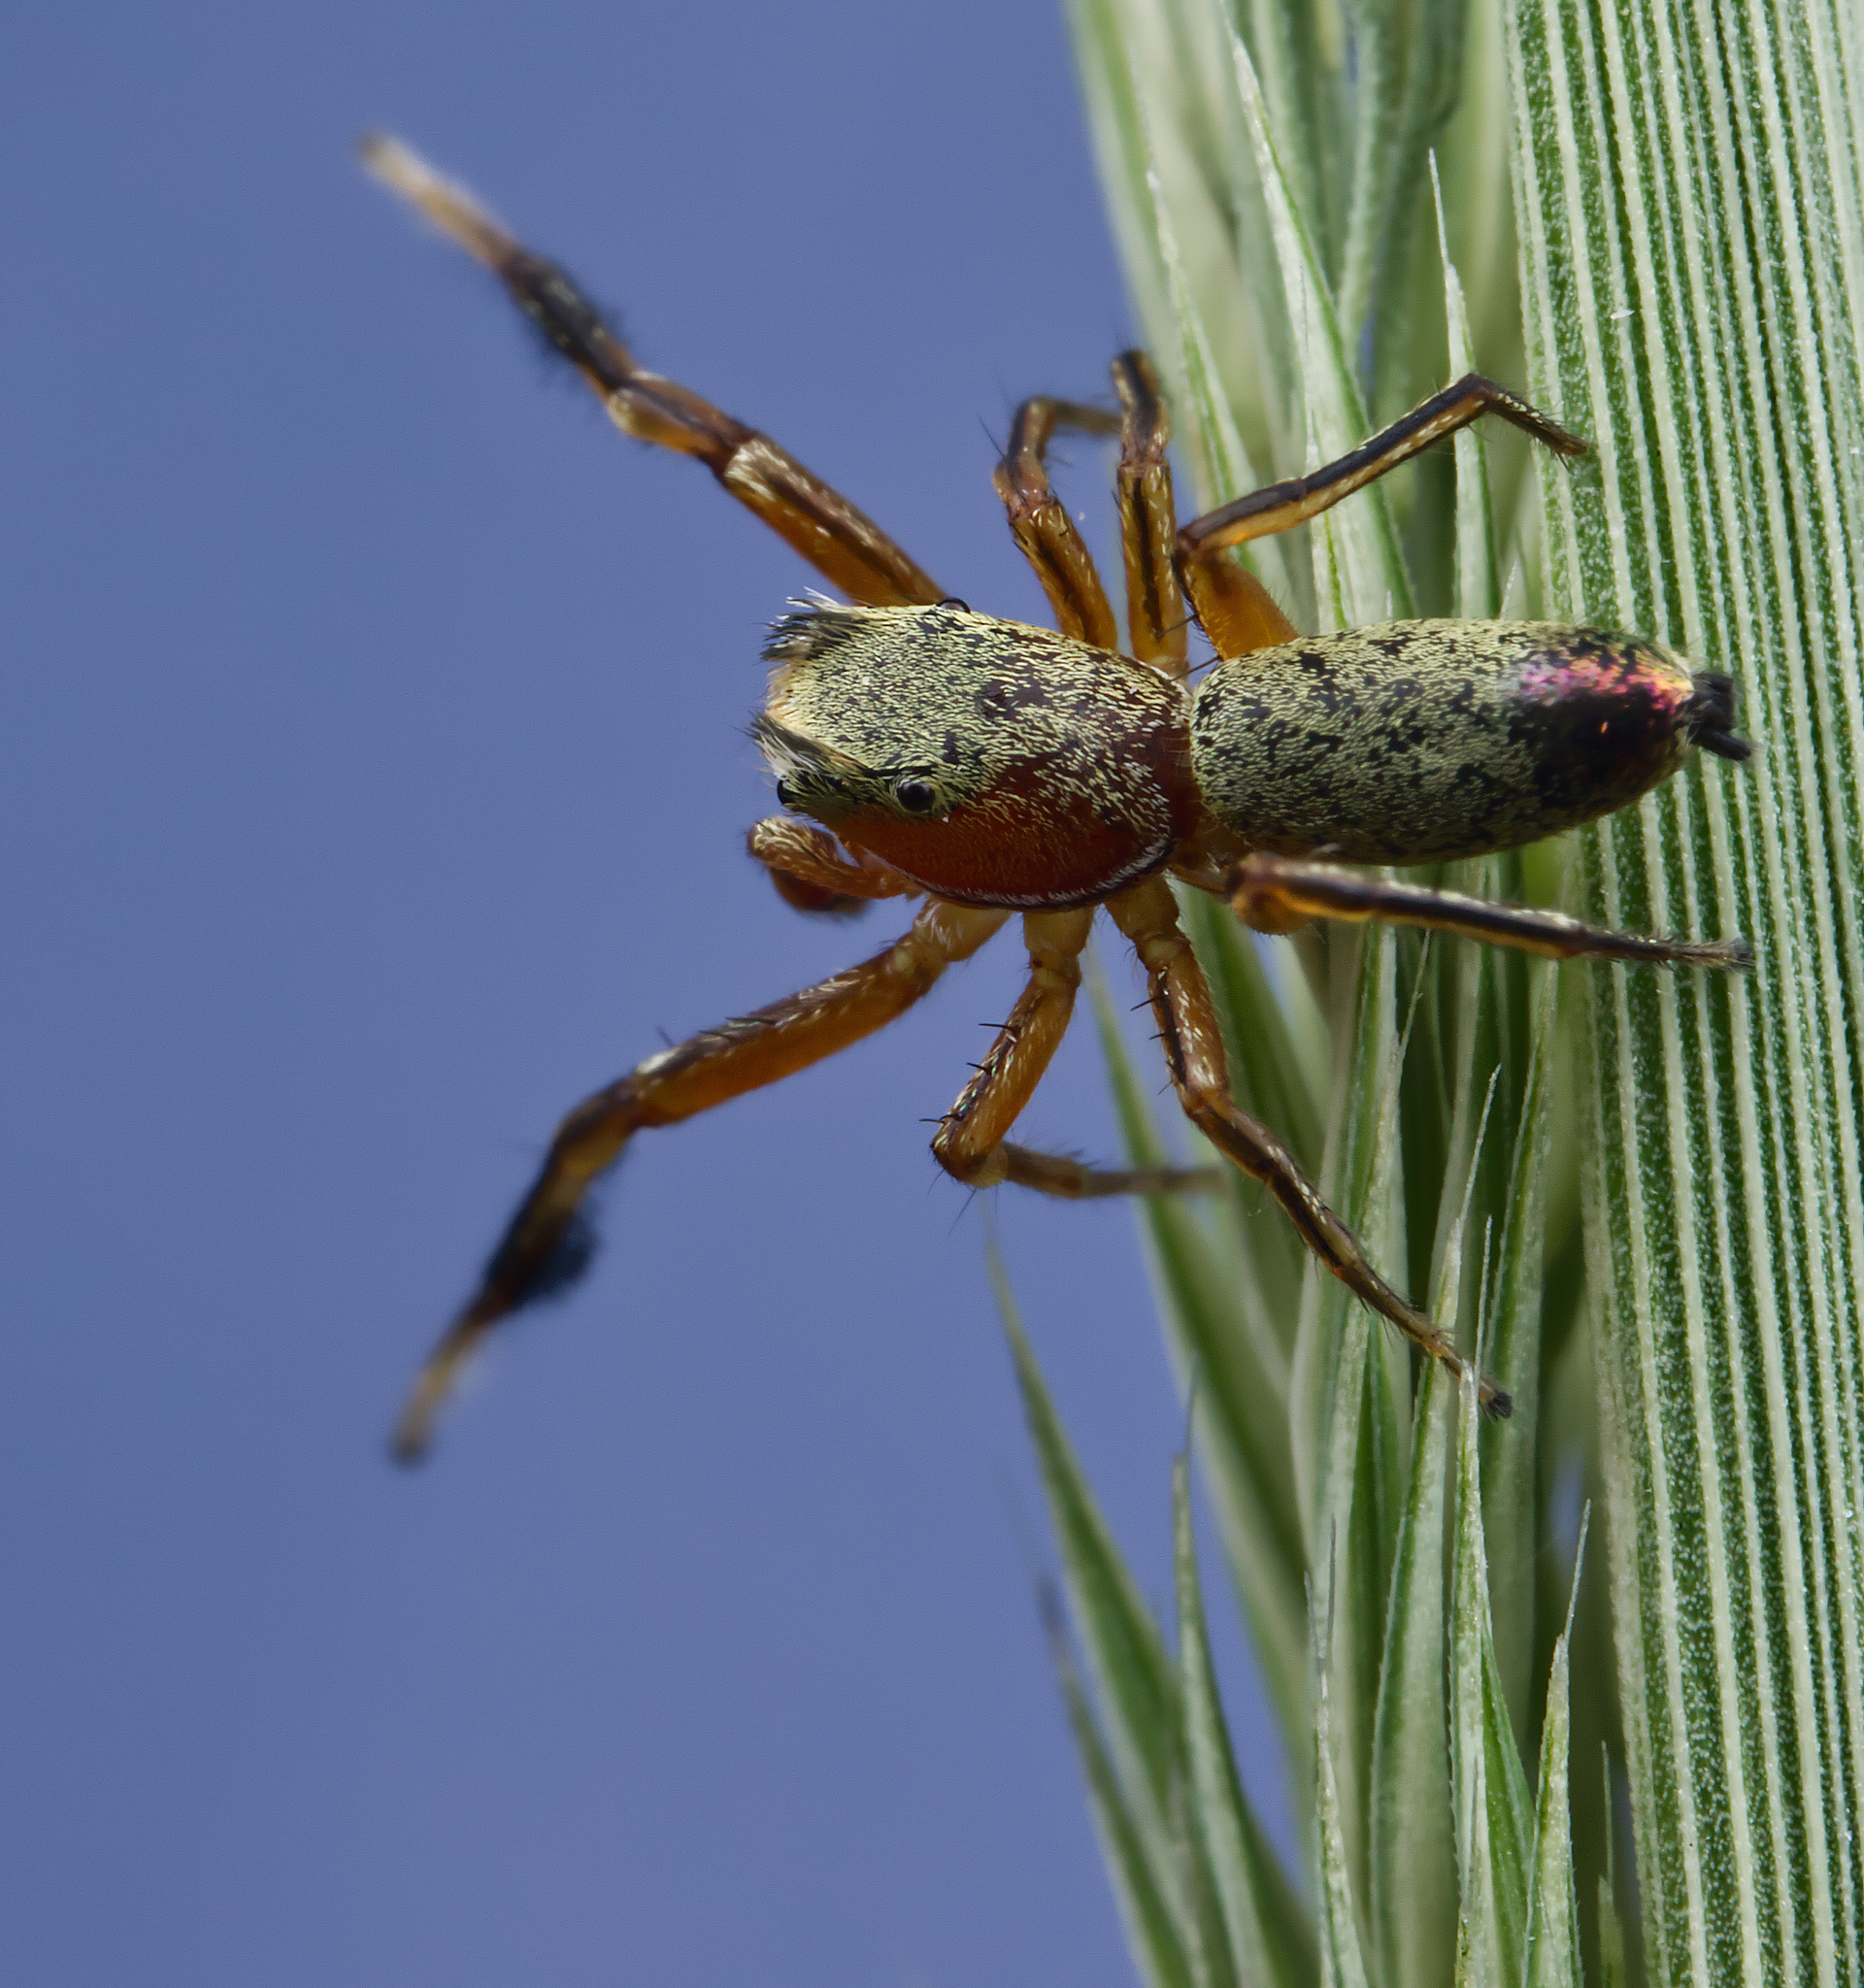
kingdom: Animalia
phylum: Arthropoda
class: Arachnida
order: Araneae
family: Salticidae
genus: Tutelina
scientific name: Tutelina elegans
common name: Thin-spined jumping spider
